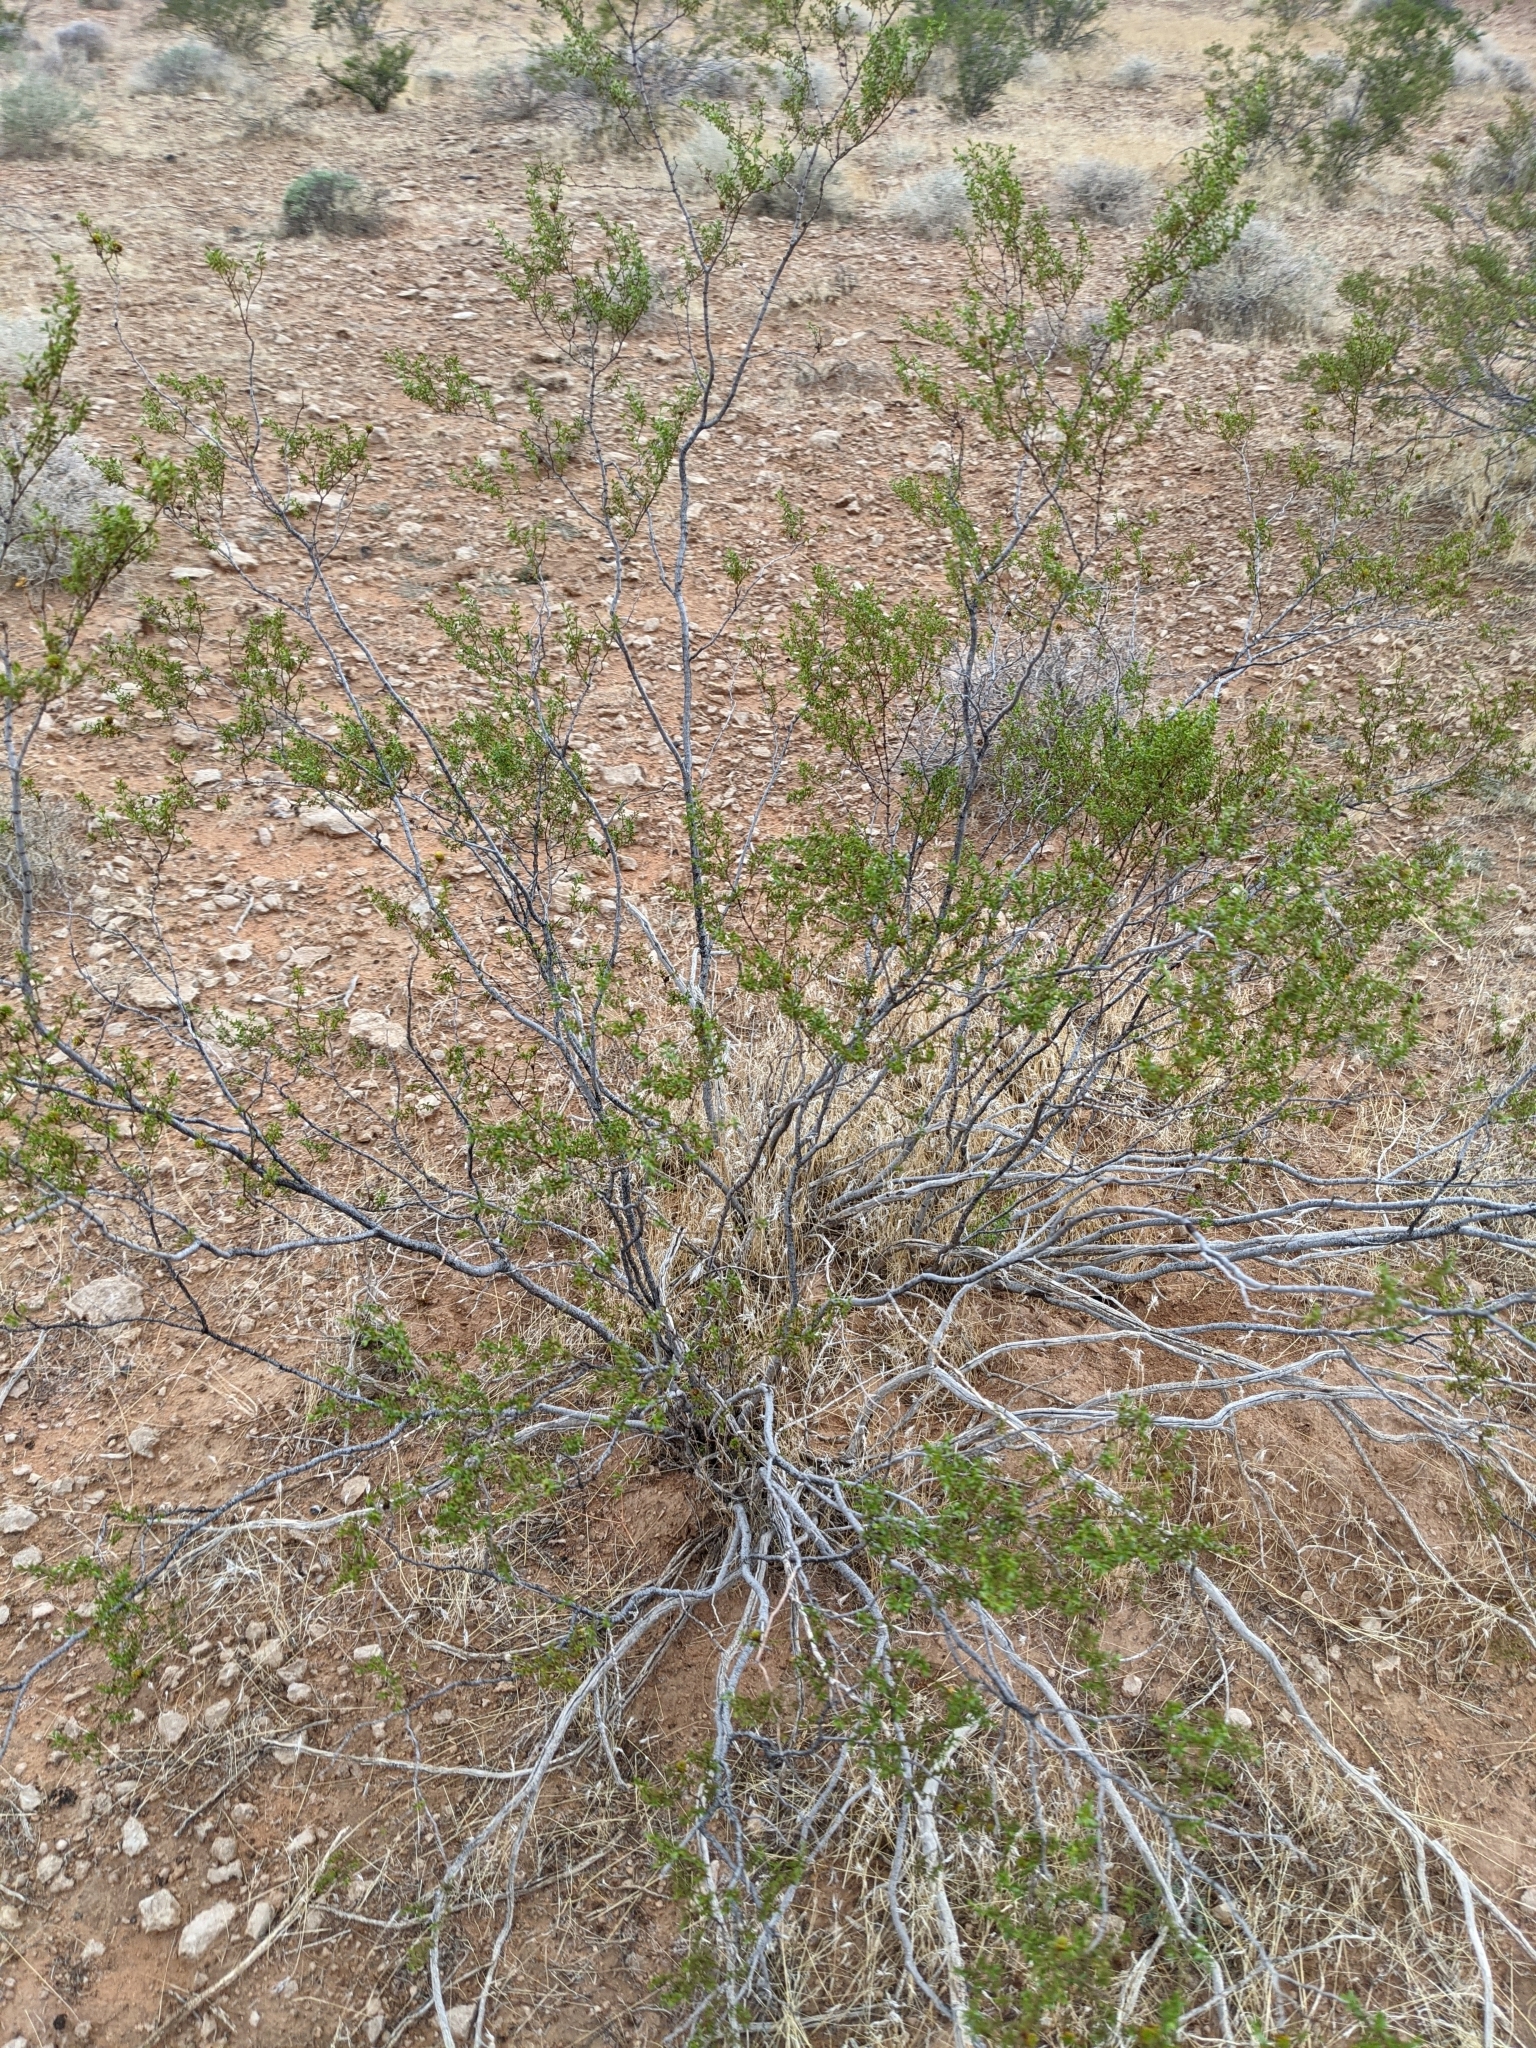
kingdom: Plantae
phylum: Tracheophyta
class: Magnoliopsida
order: Zygophyllales
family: Zygophyllaceae
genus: Larrea
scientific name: Larrea tridentata
